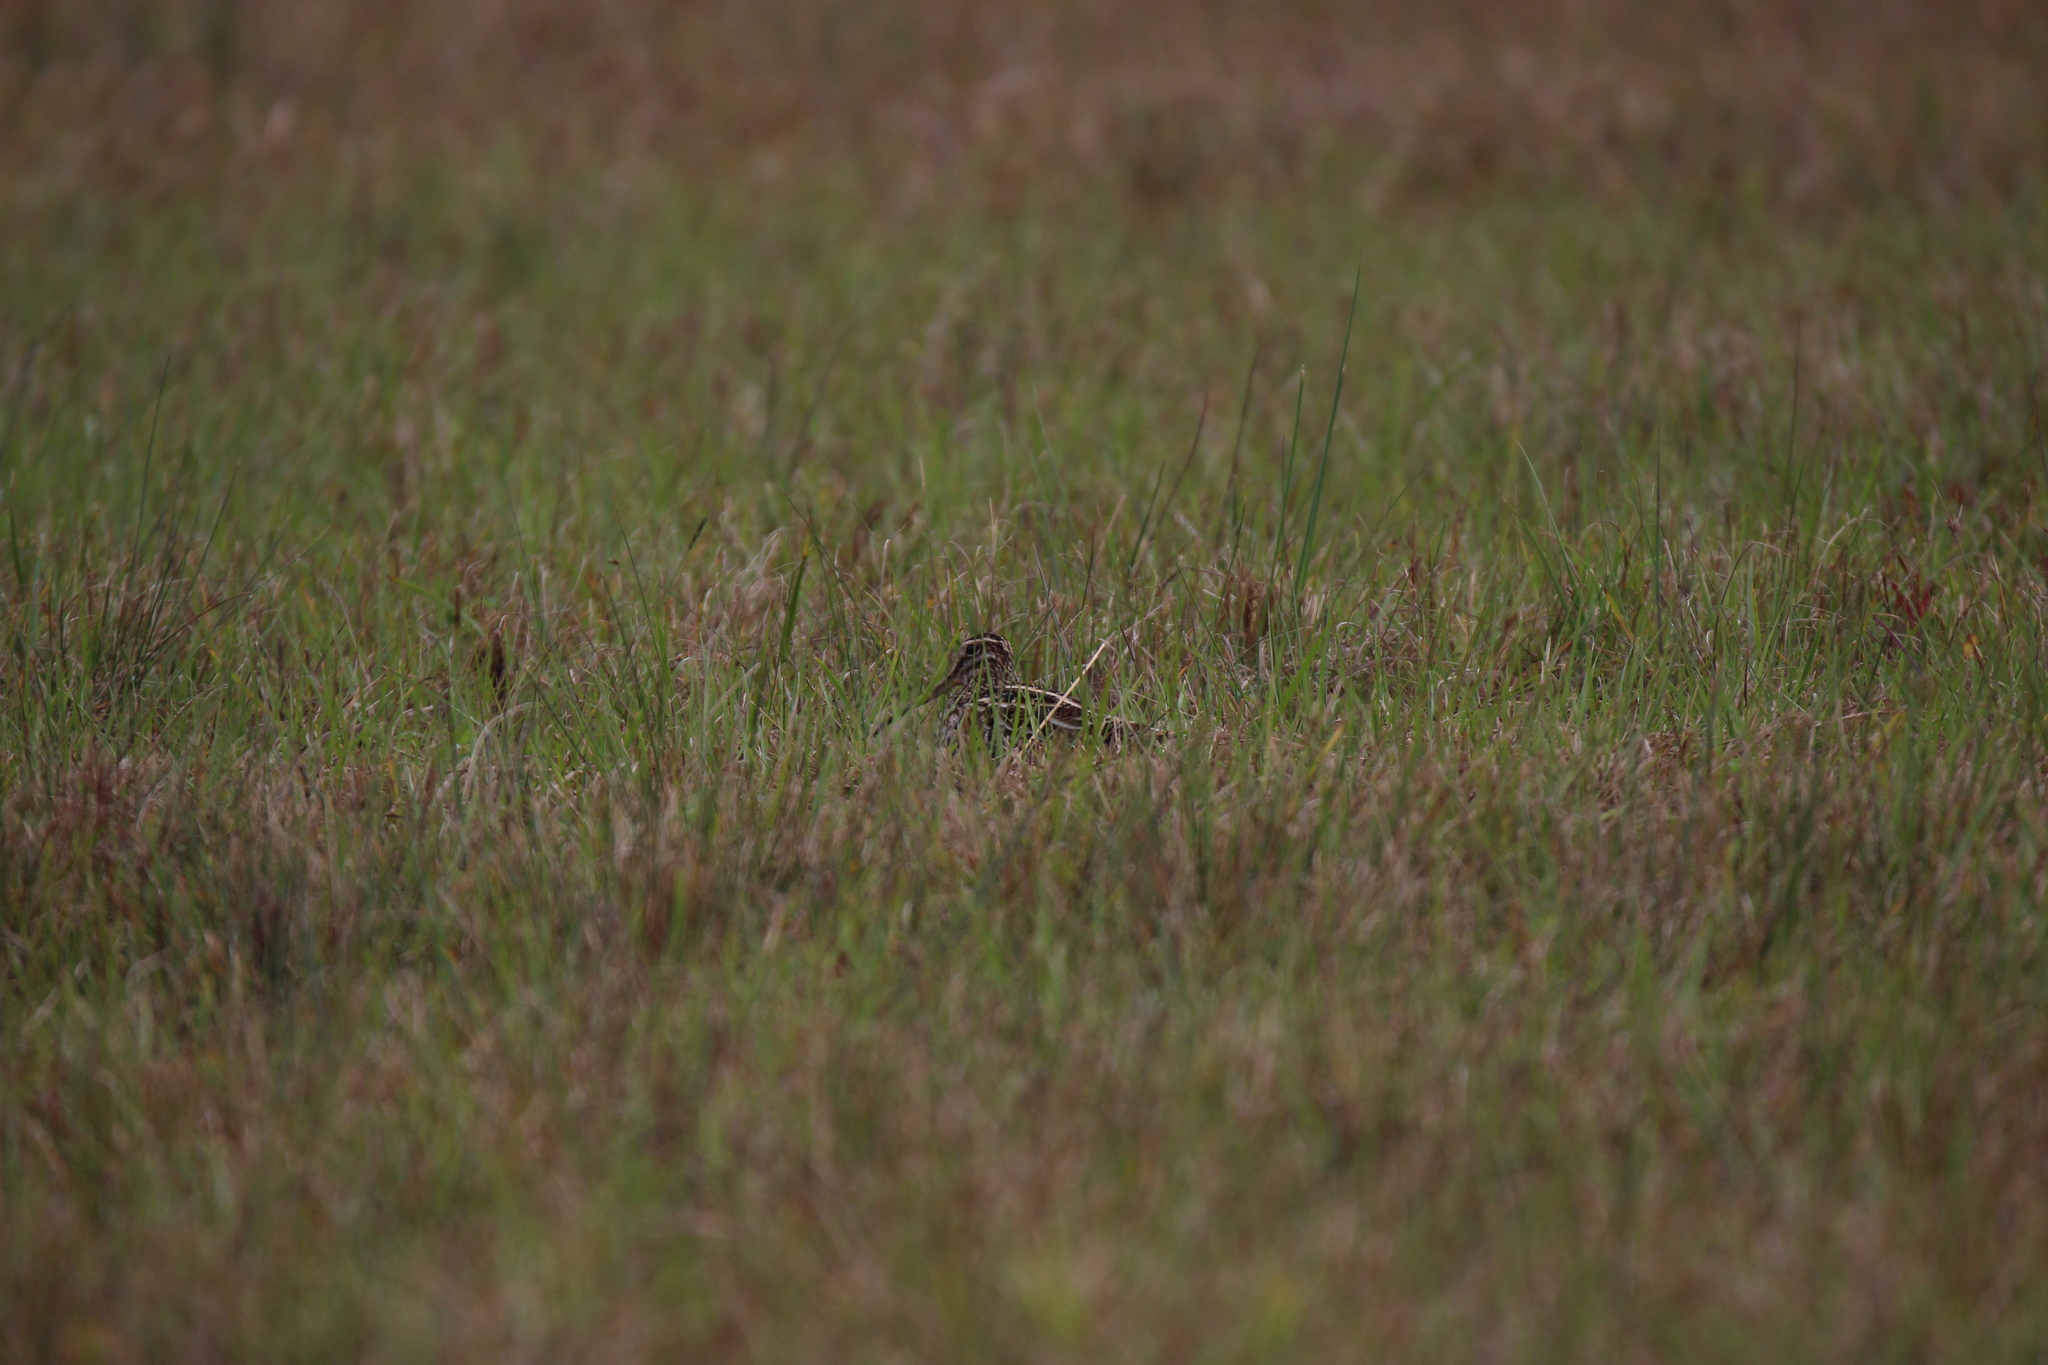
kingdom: Animalia
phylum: Chordata
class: Aves
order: Charadriiformes
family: Scolopacidae
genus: Gallinago
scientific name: Gallinago delicata
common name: Wilson's snipe
